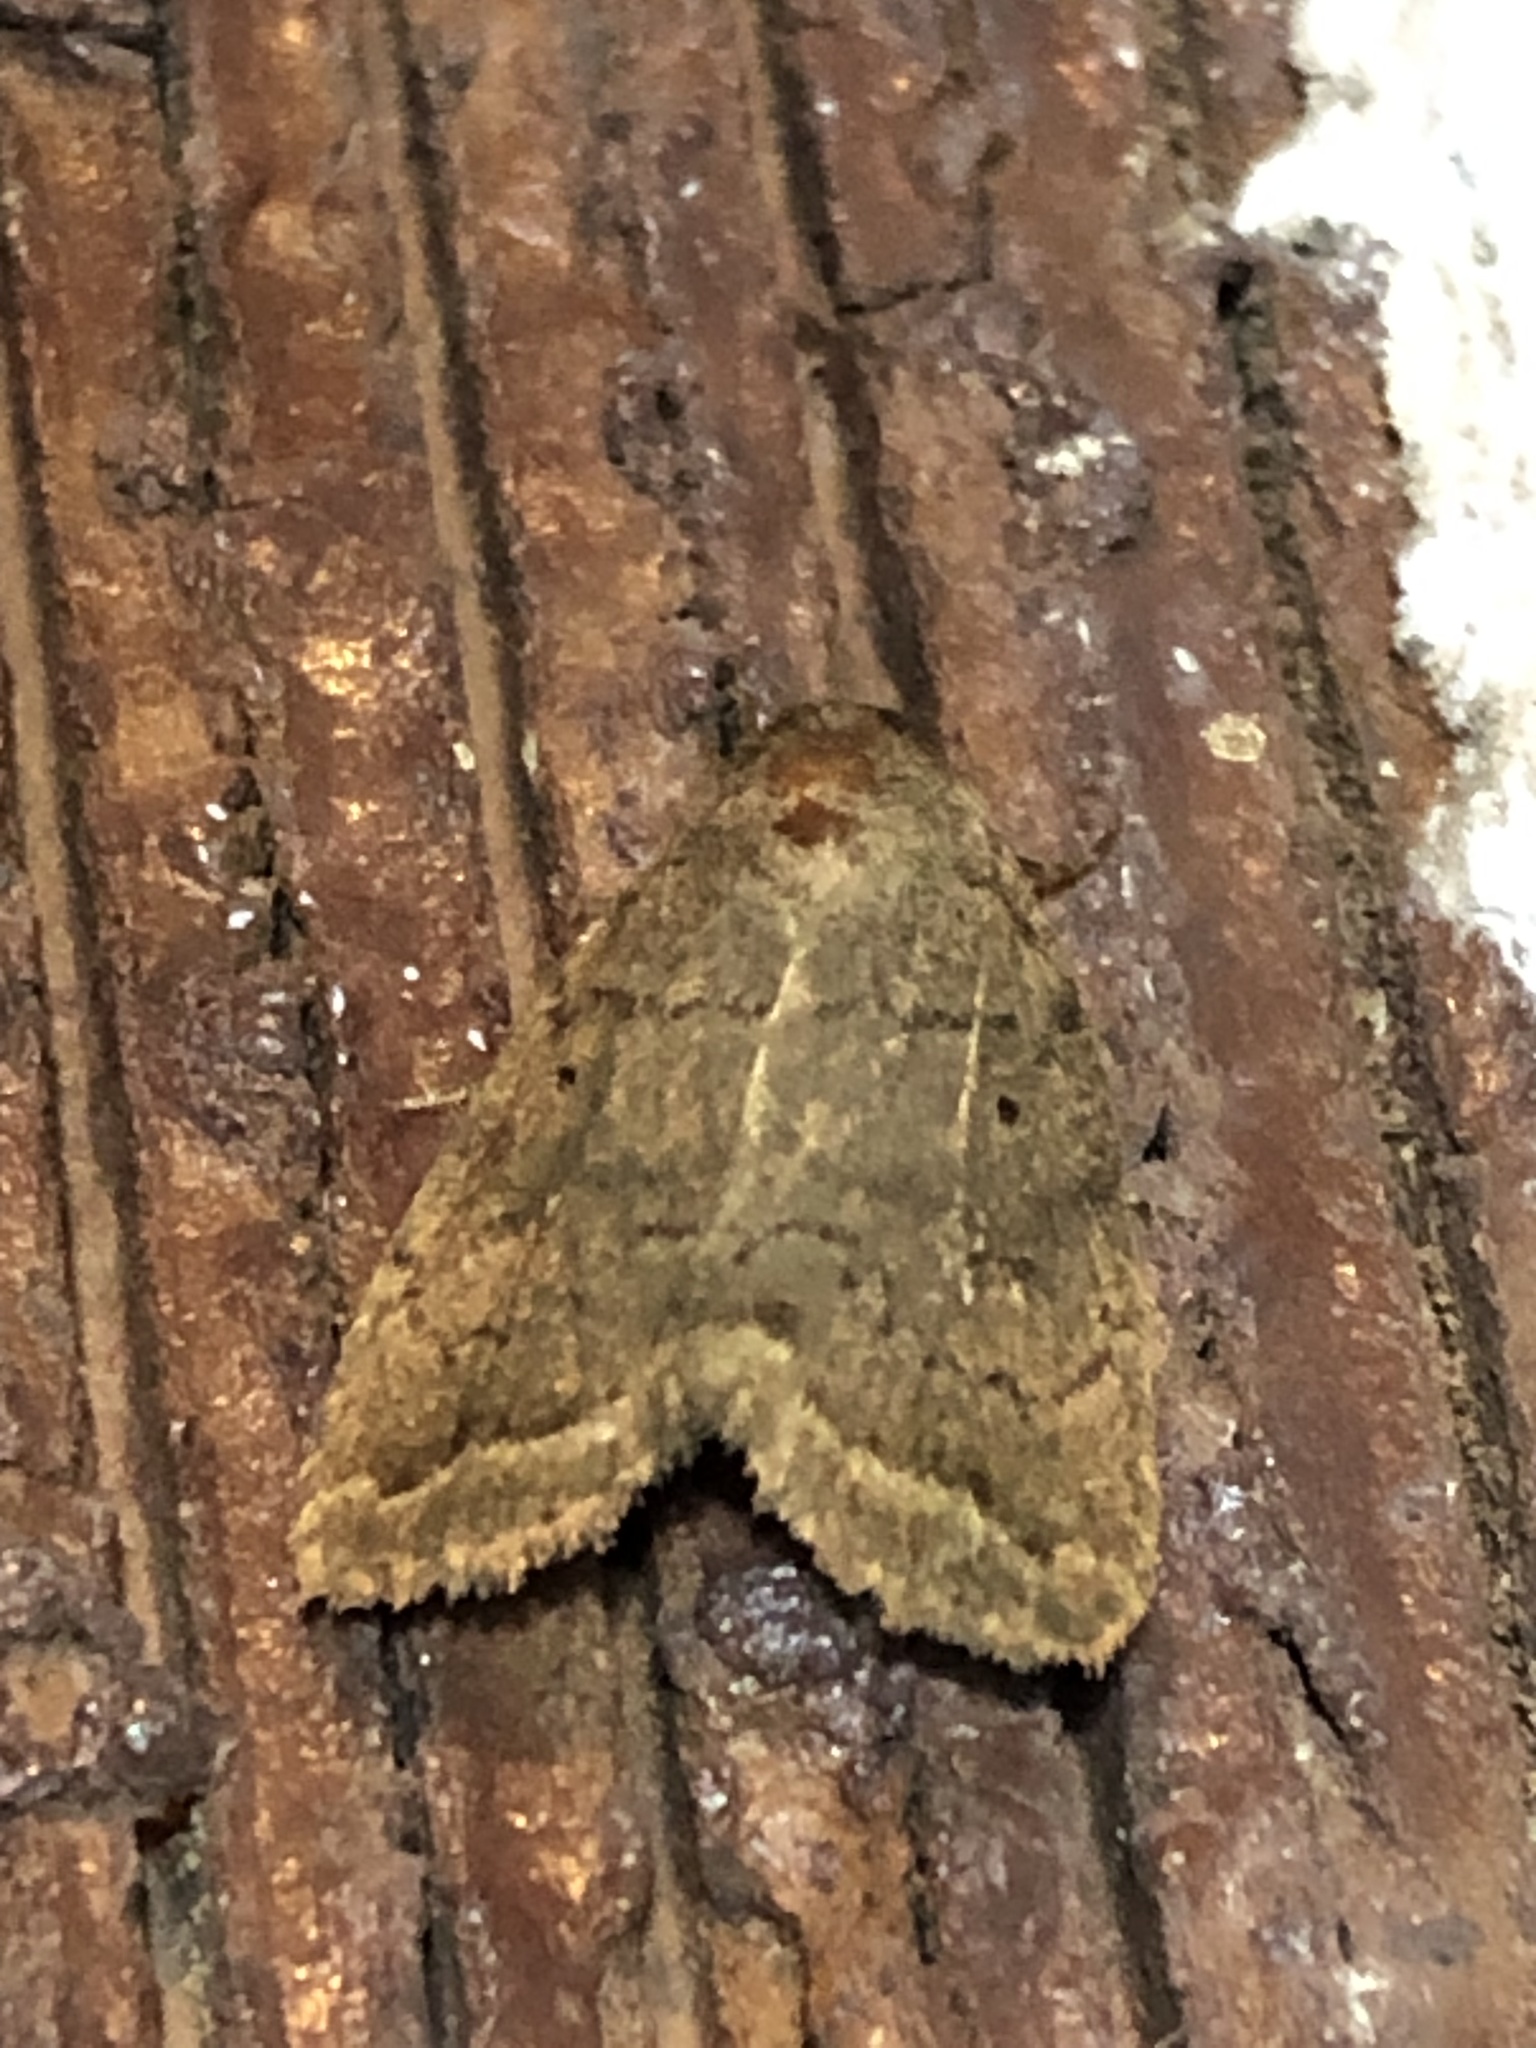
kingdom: Animalia
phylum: Arthropoda
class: Insecta
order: Lepidoptera
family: Noctuidae
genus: Athetis
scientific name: Athetis tarda
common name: Slowpoke moth
